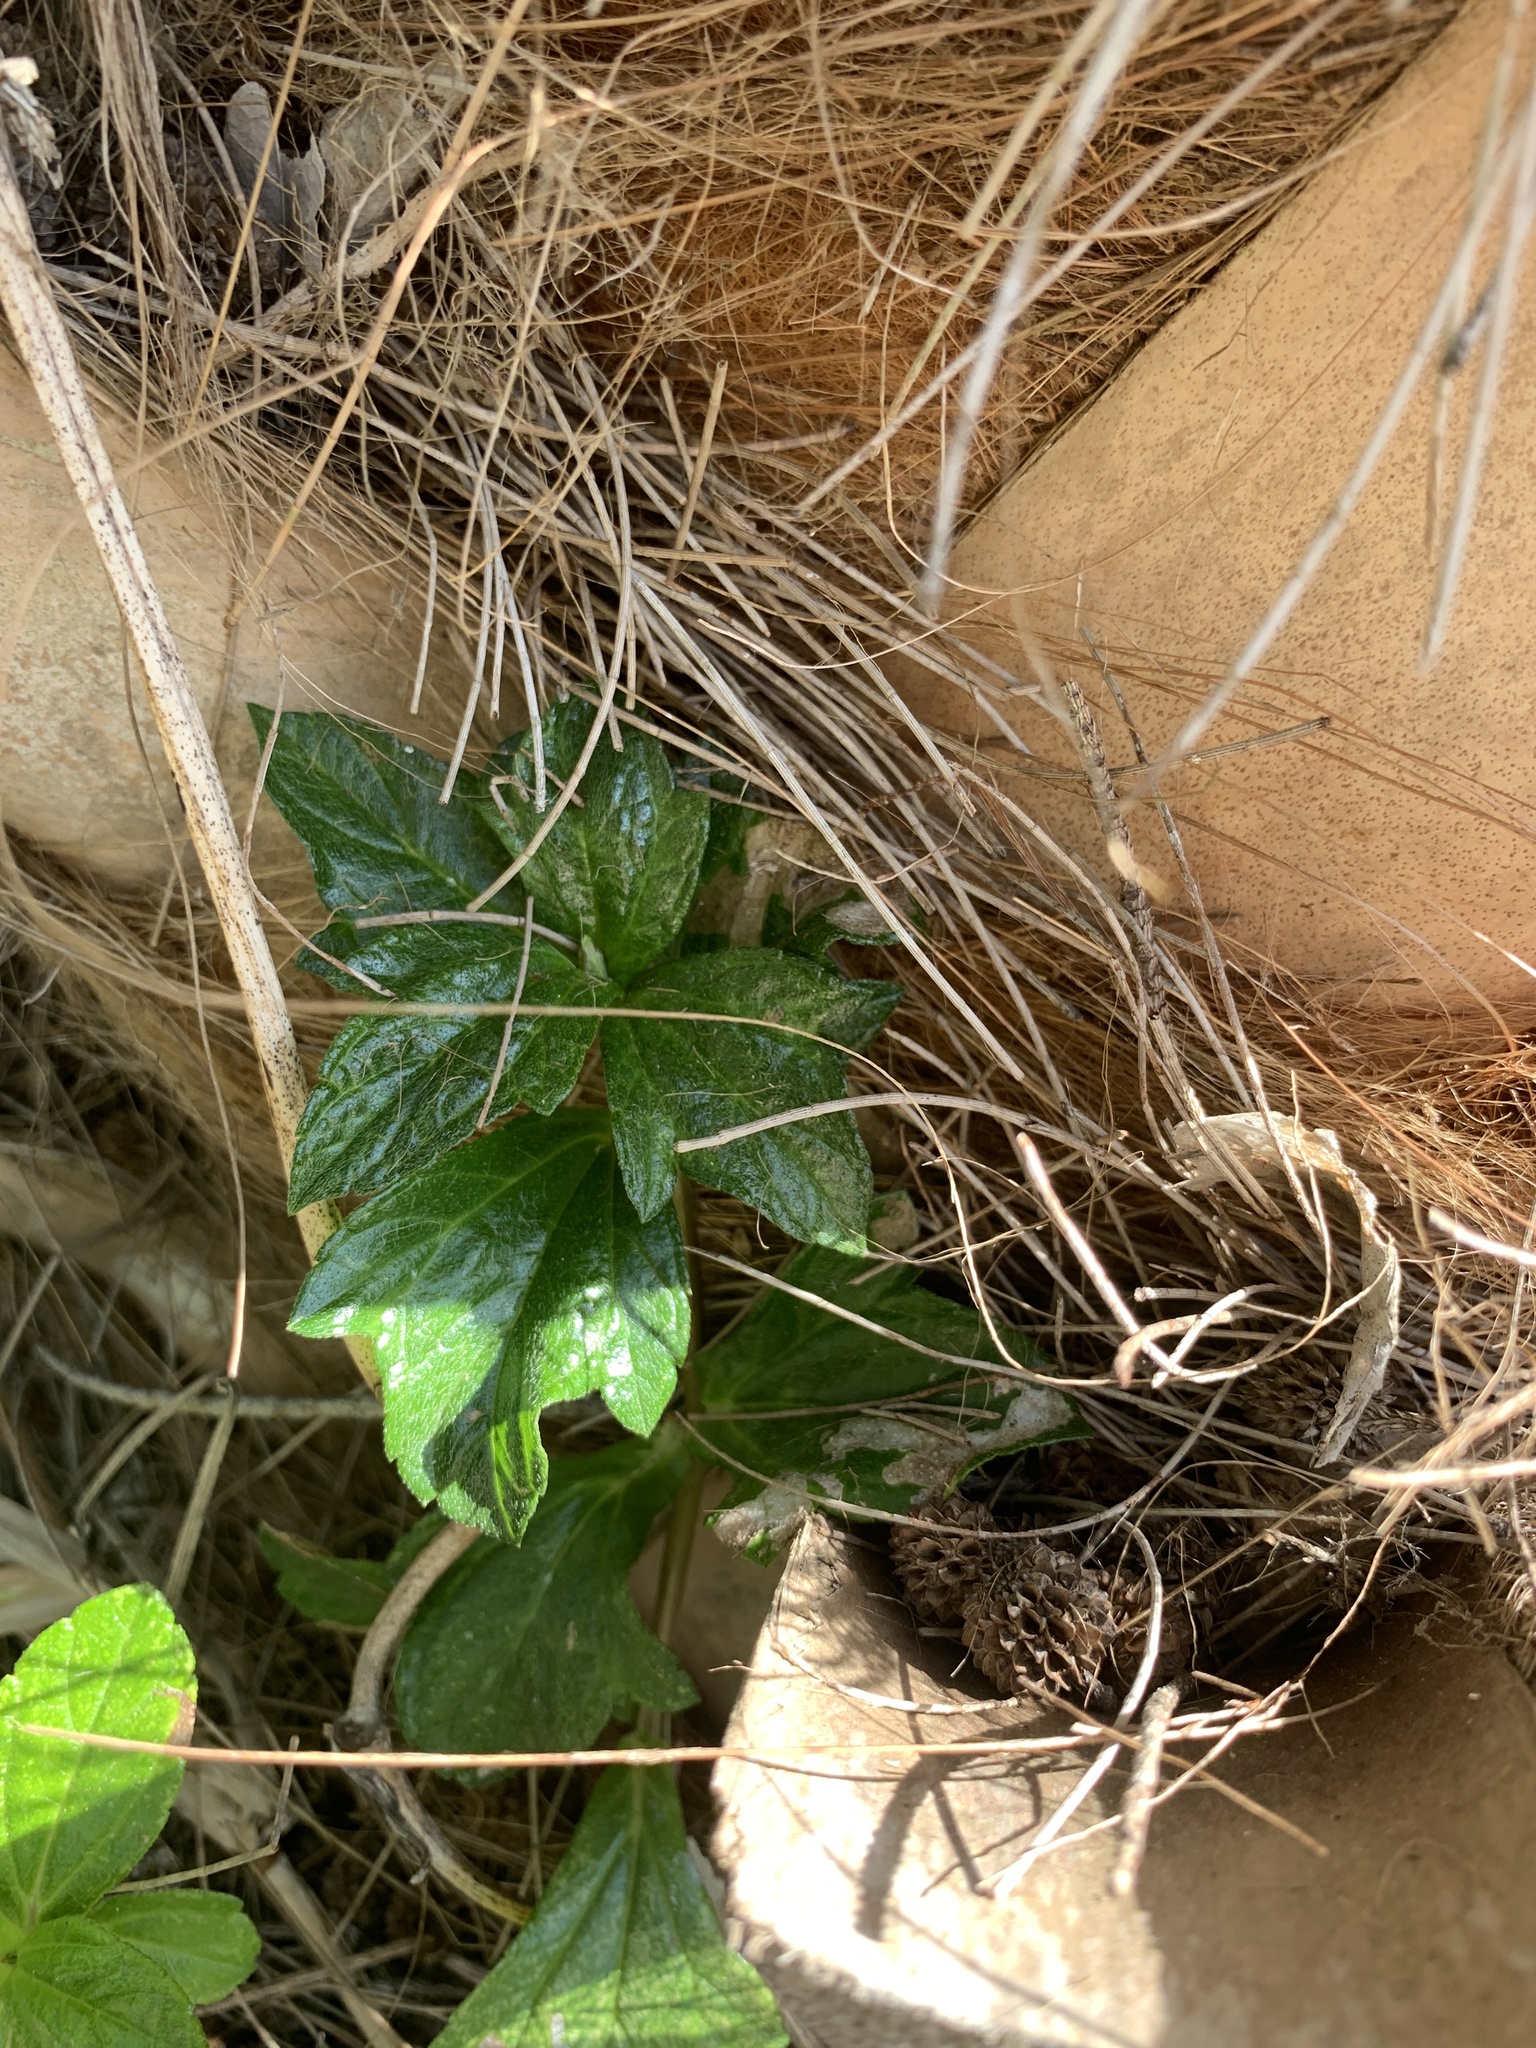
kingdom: Plantae
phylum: Tracheophyta
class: Magnoliopsida
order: Asterales
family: Asteraceae
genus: Sphagneticola
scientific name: Sphagneticola trilobata
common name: Bay biscayne creeping-oxeye
